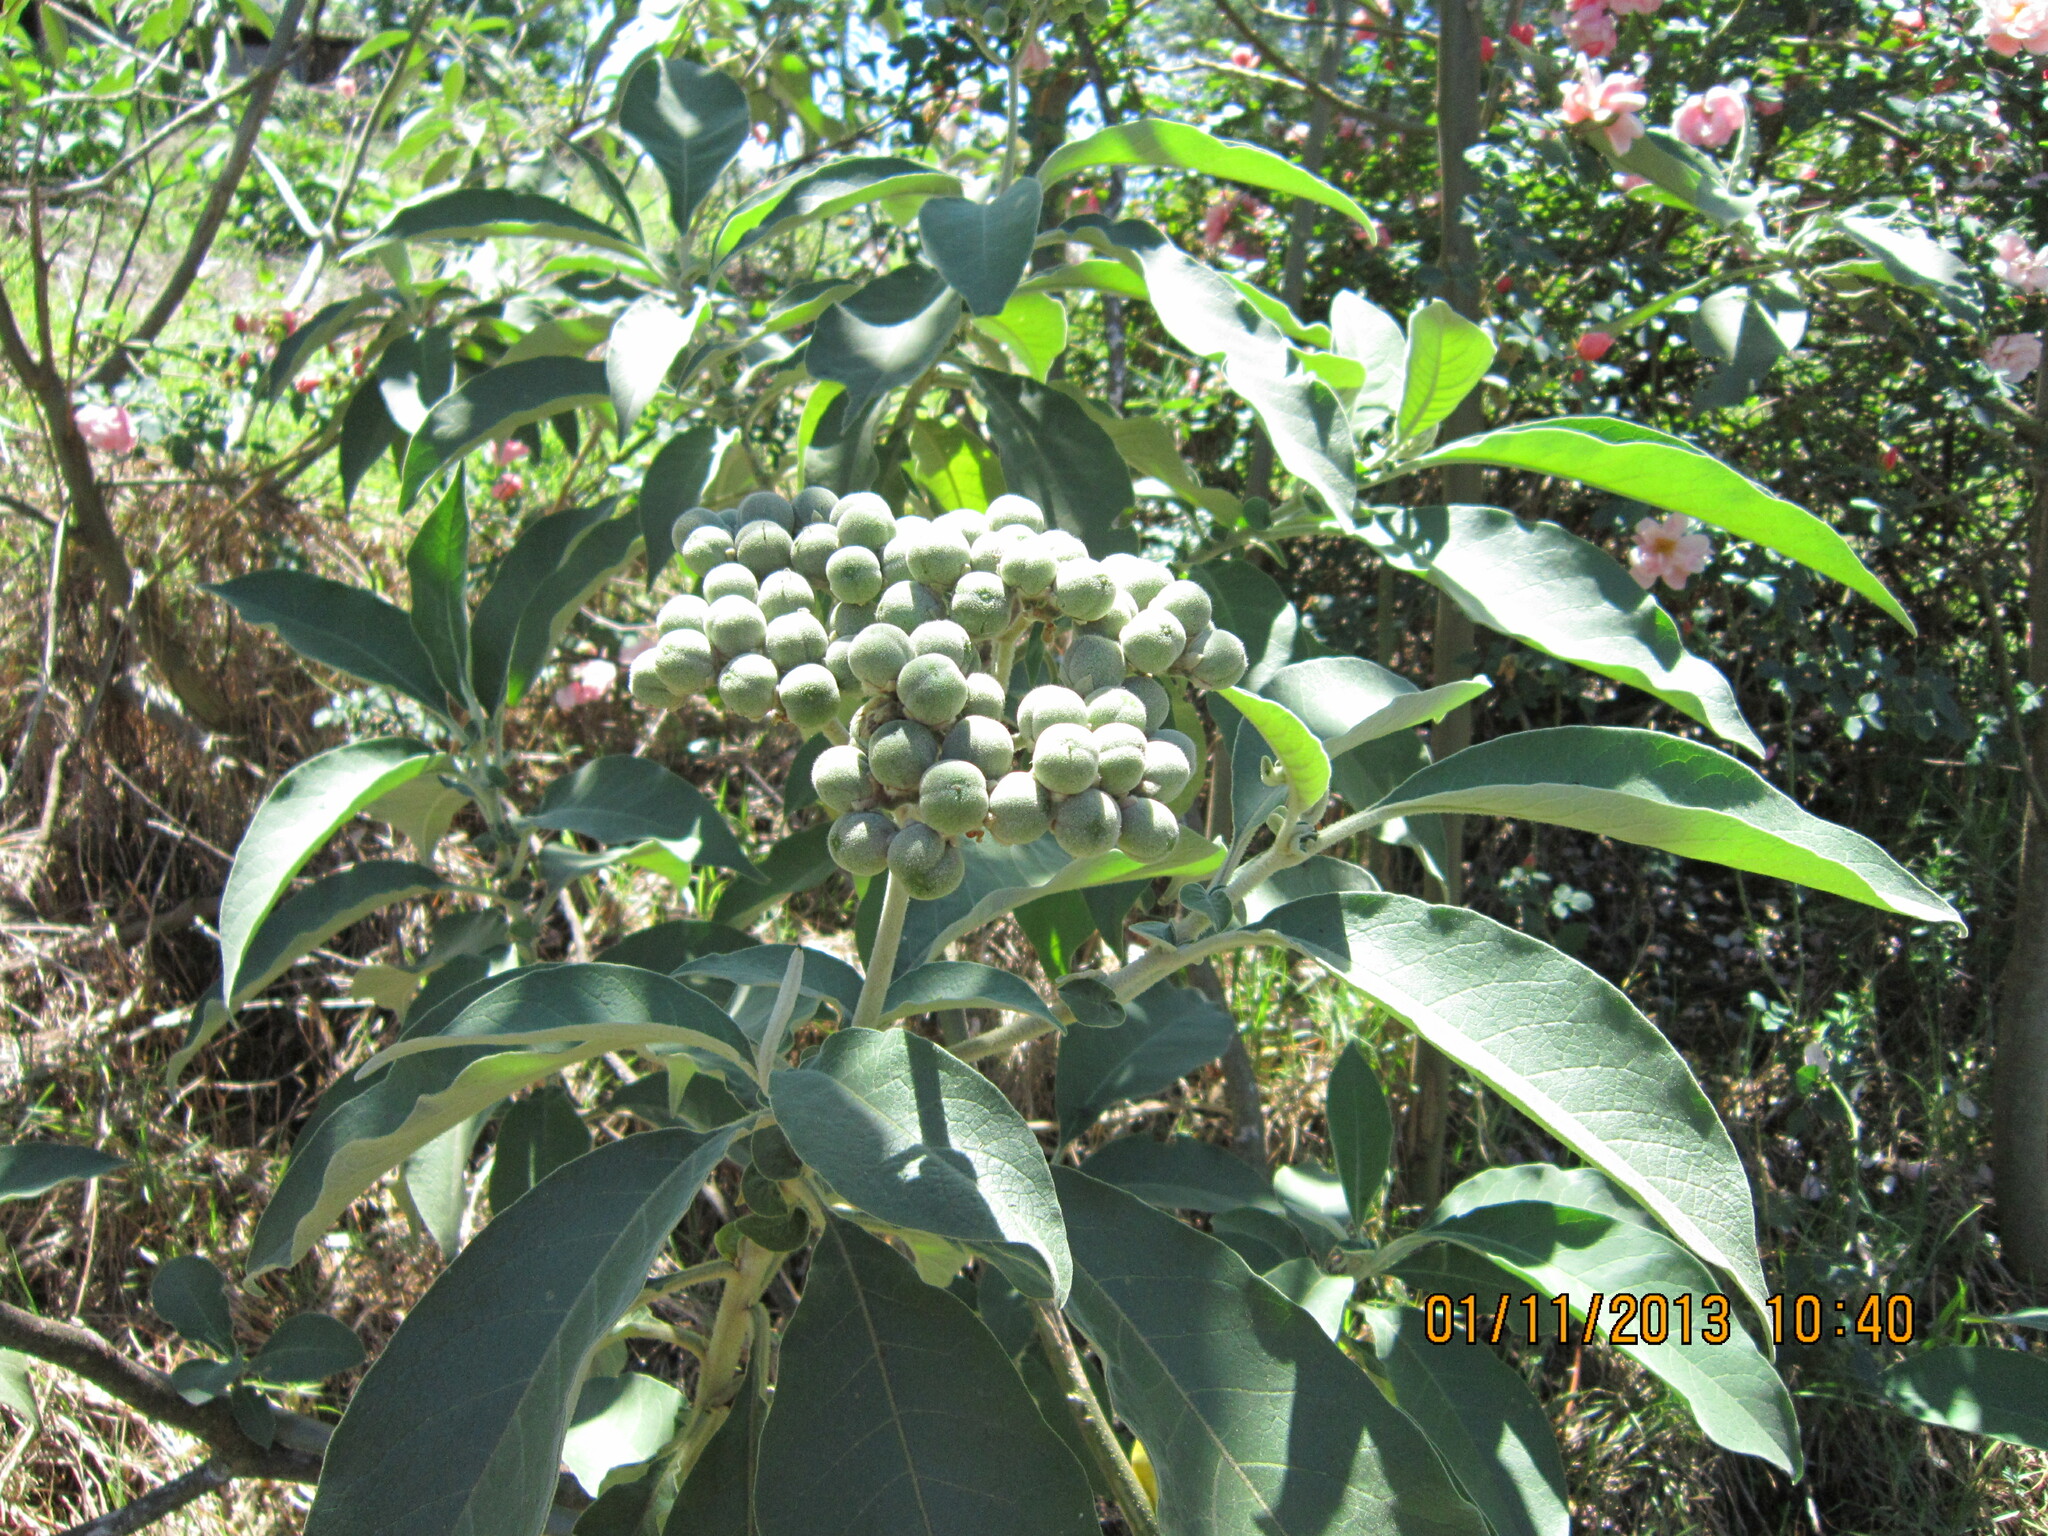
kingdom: Plantae
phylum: Tracheophyta
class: Magnoliopsida
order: Solanales
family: Solanaceae
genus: Solanum
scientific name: Solanum mauritianum
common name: Earleaf nightshade
